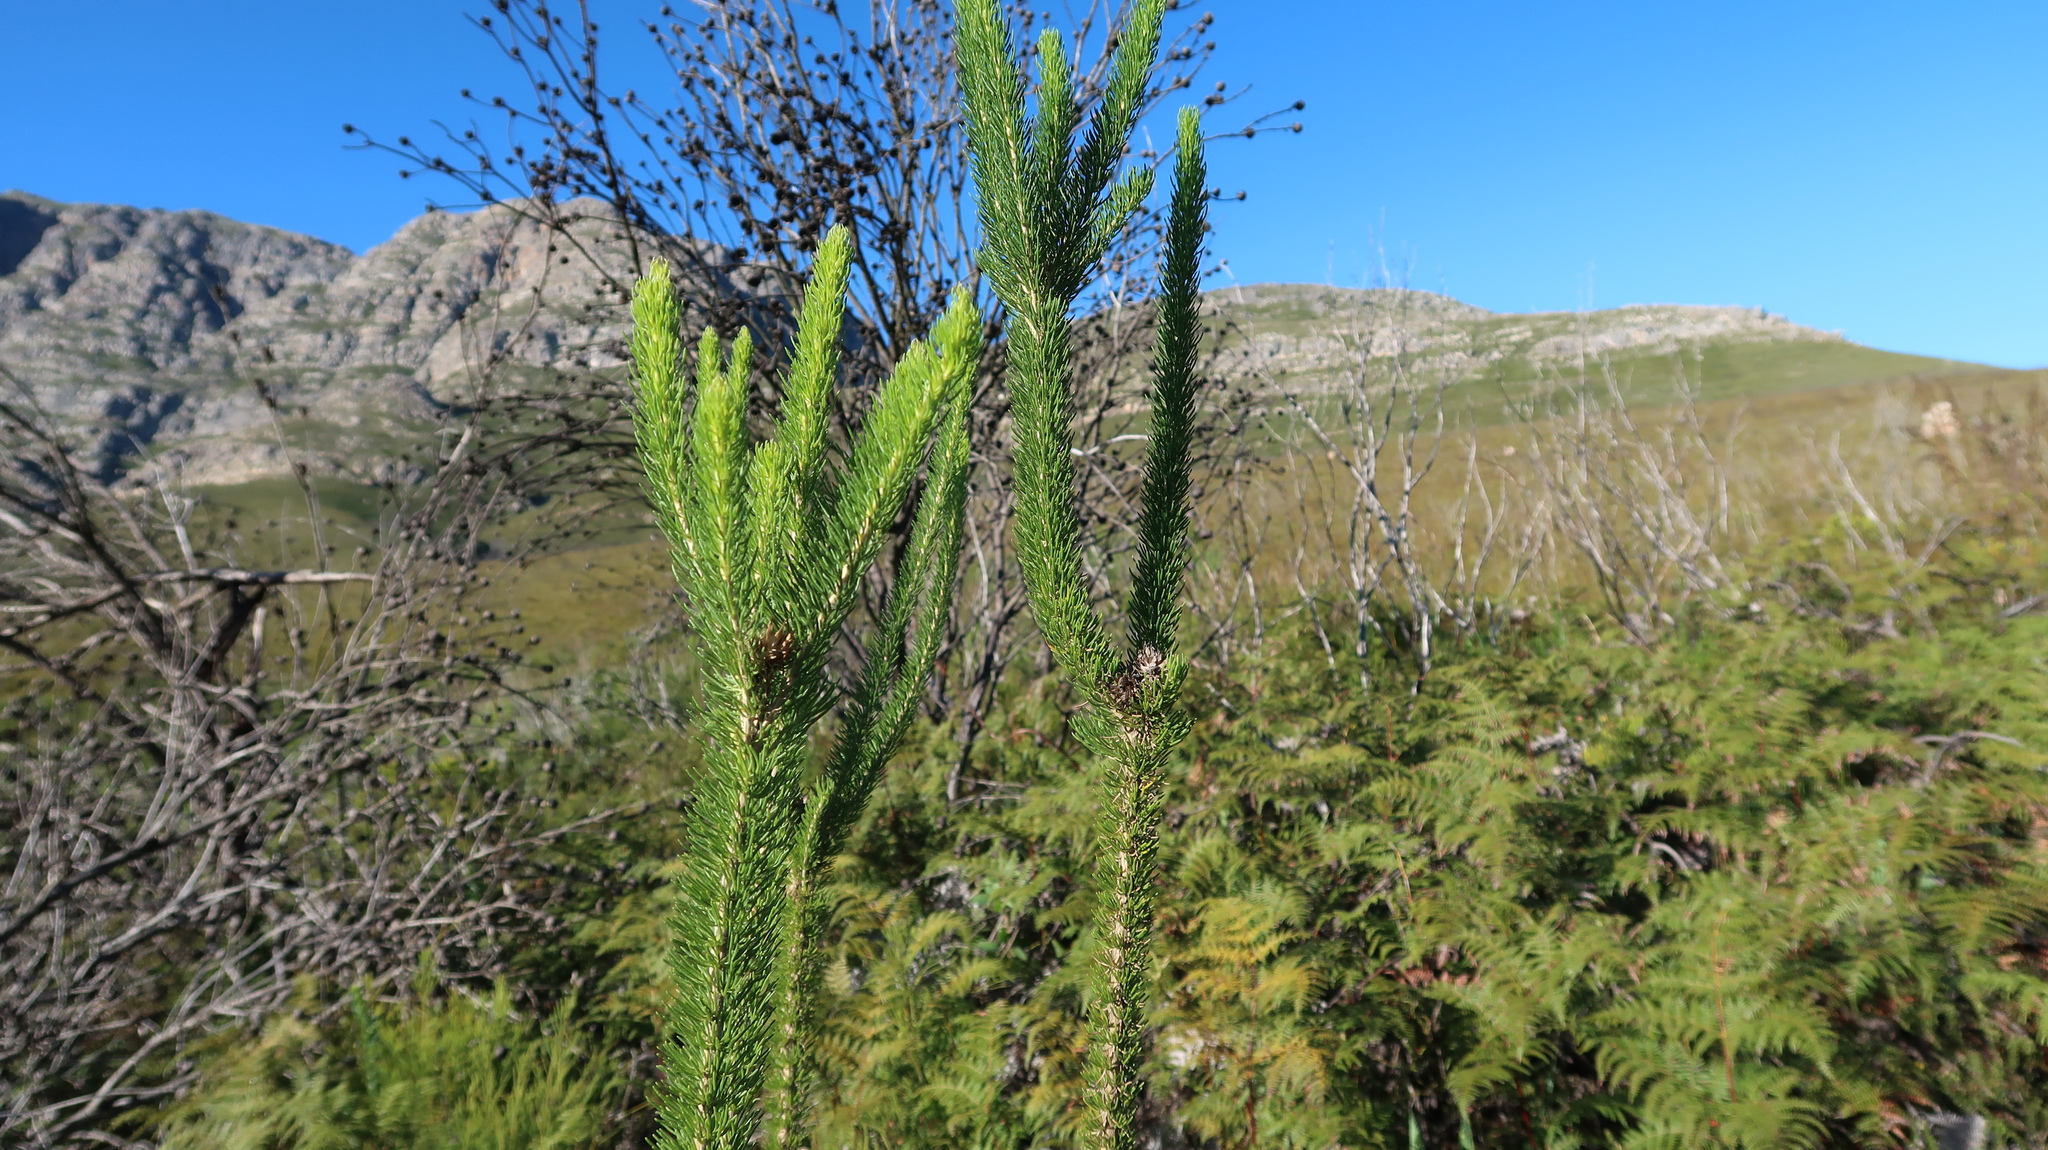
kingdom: Plantae
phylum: Tracheophyta
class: Magnoliopsida
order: Asterales
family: Asteraceae
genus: Pteronia
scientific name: Pteronia camphorata
